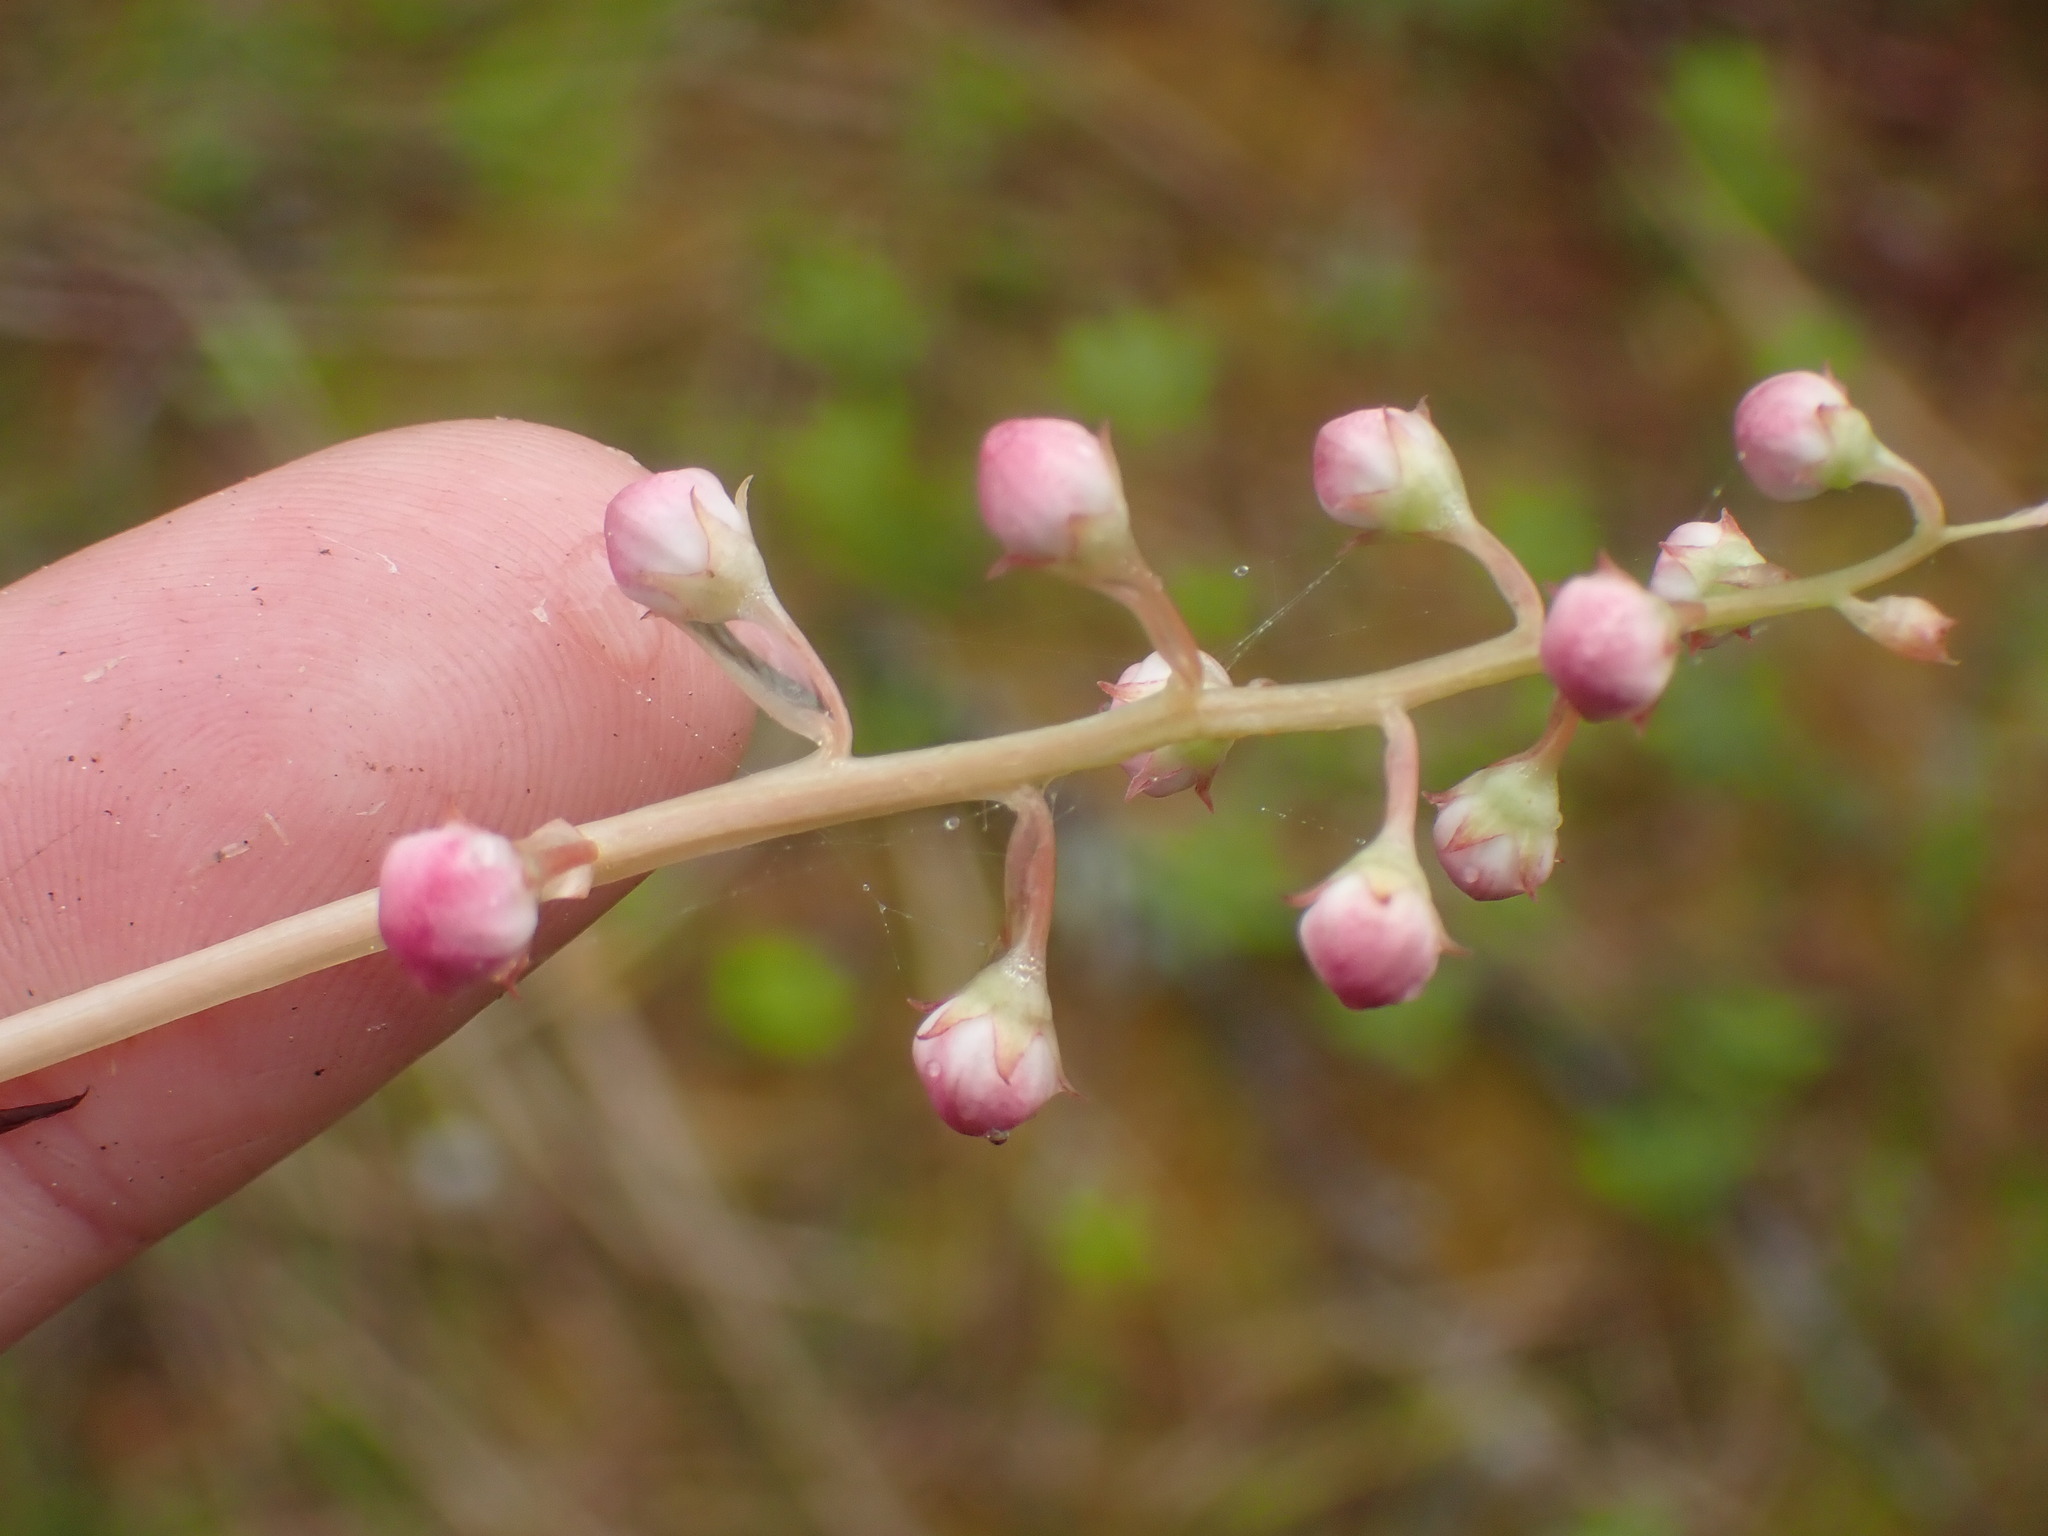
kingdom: Plantae
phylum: Tracheophyta
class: Magnoliopsida
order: Ericales
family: Ericaceae
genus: Pyrola
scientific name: Pyrola asarifolia
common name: Bog wintergreen
